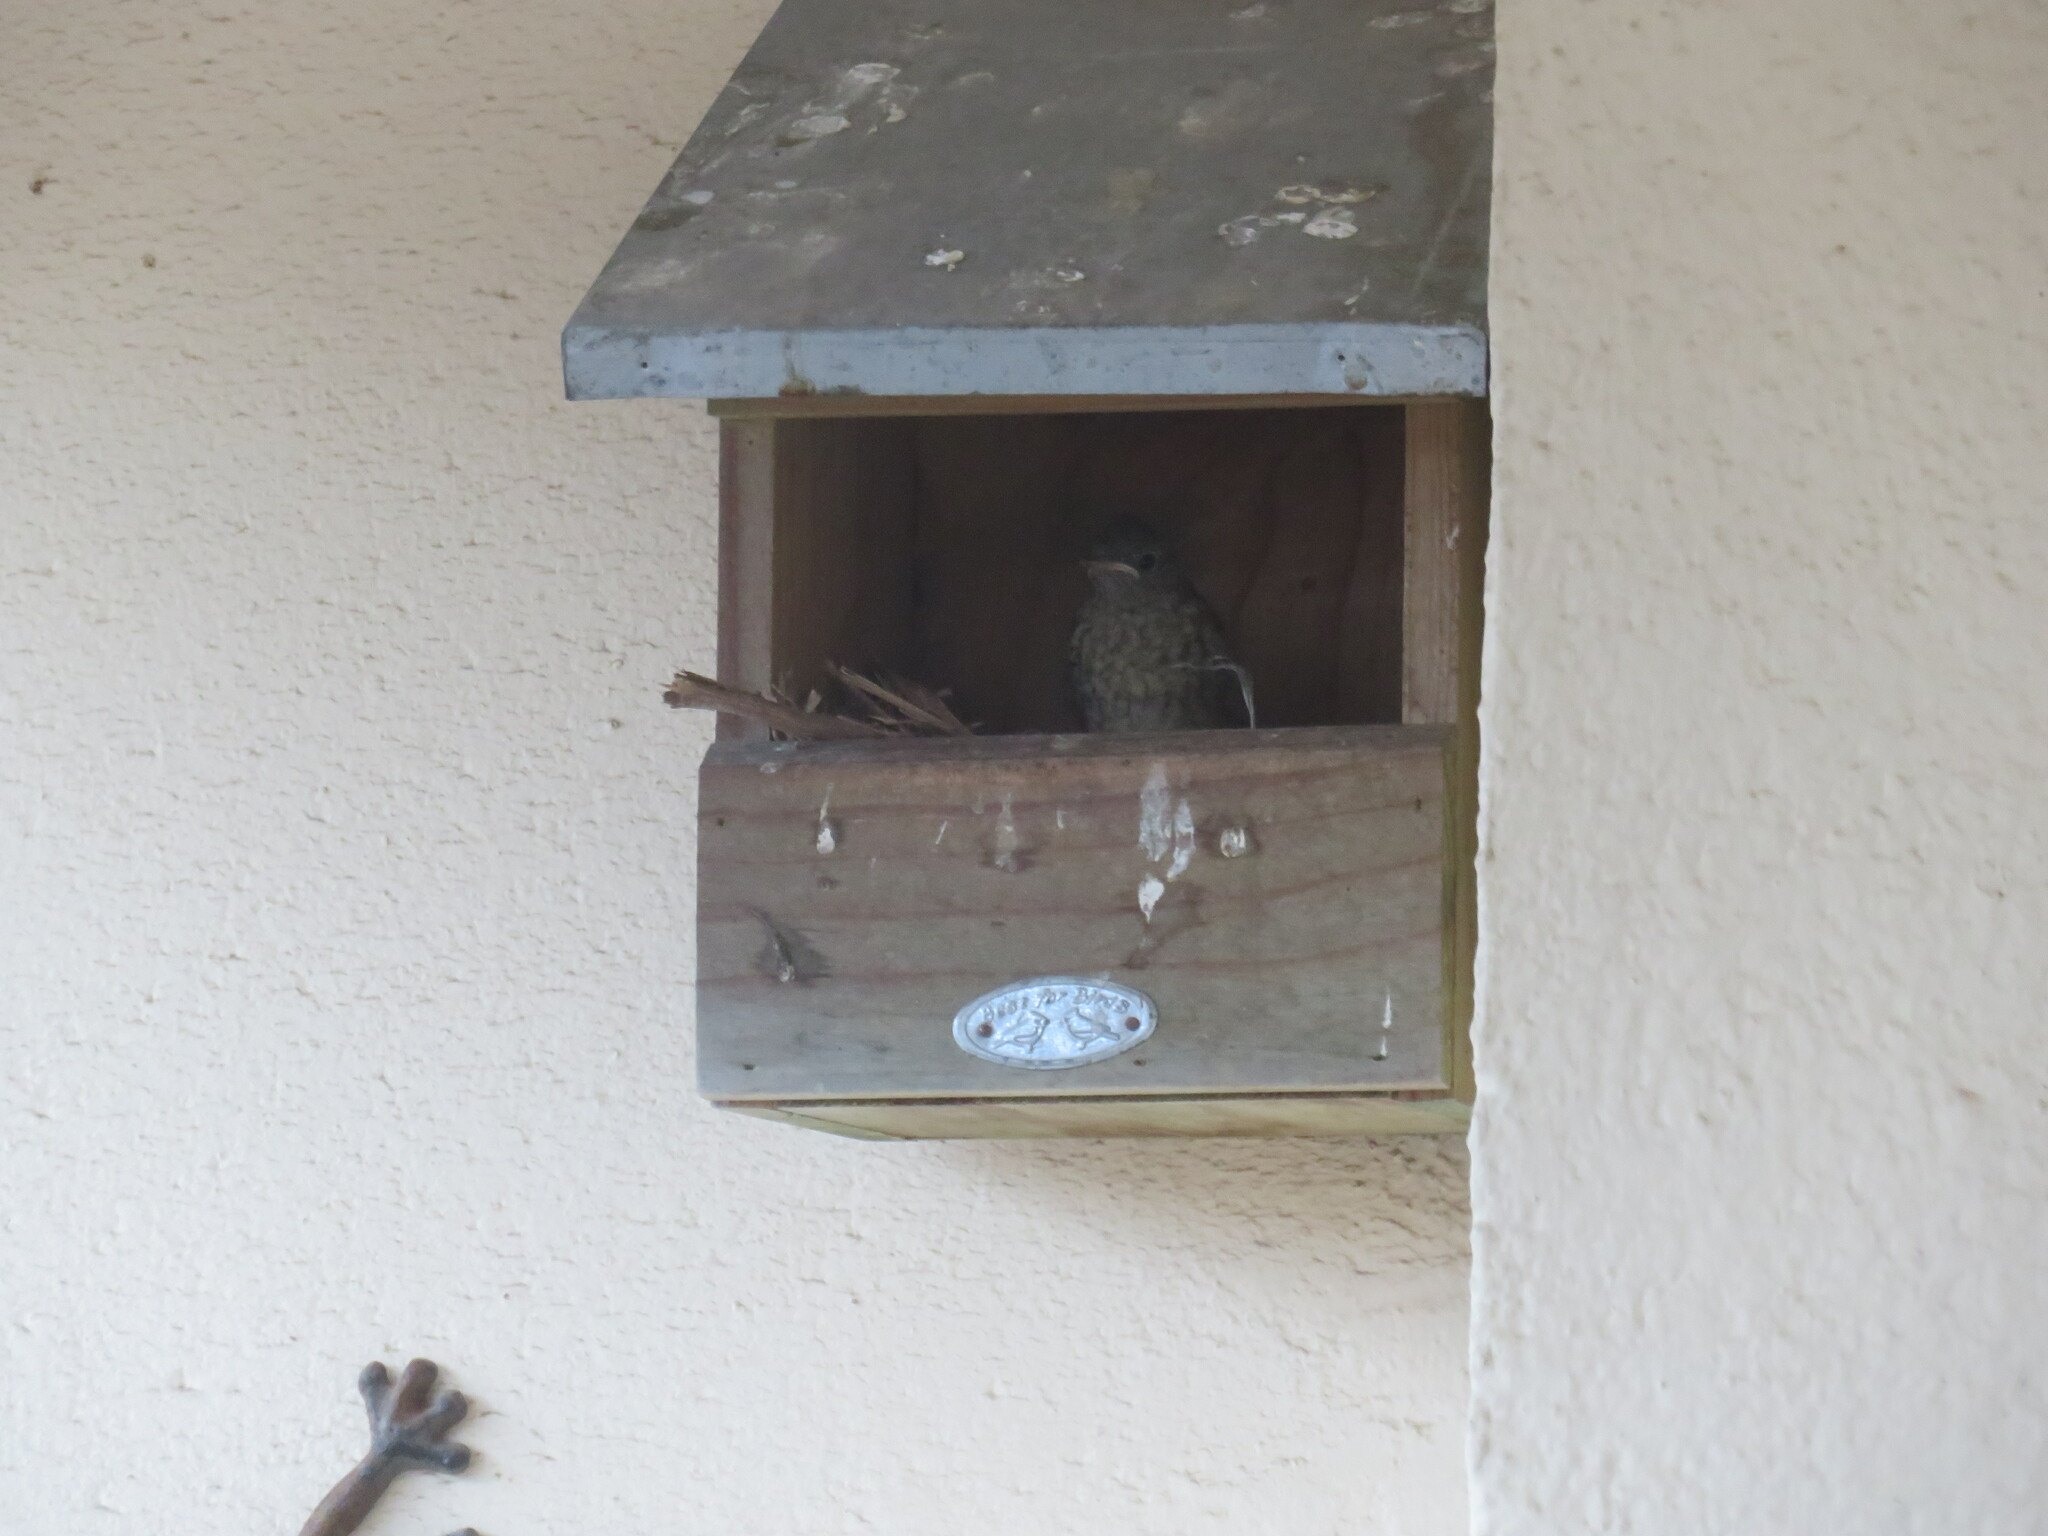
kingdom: Animalia
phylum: Chordata
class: Aves
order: Passeriformes
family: Muscicapidae
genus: Phoenicurus
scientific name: Phoenicurus phoenicurus
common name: Common redstart
